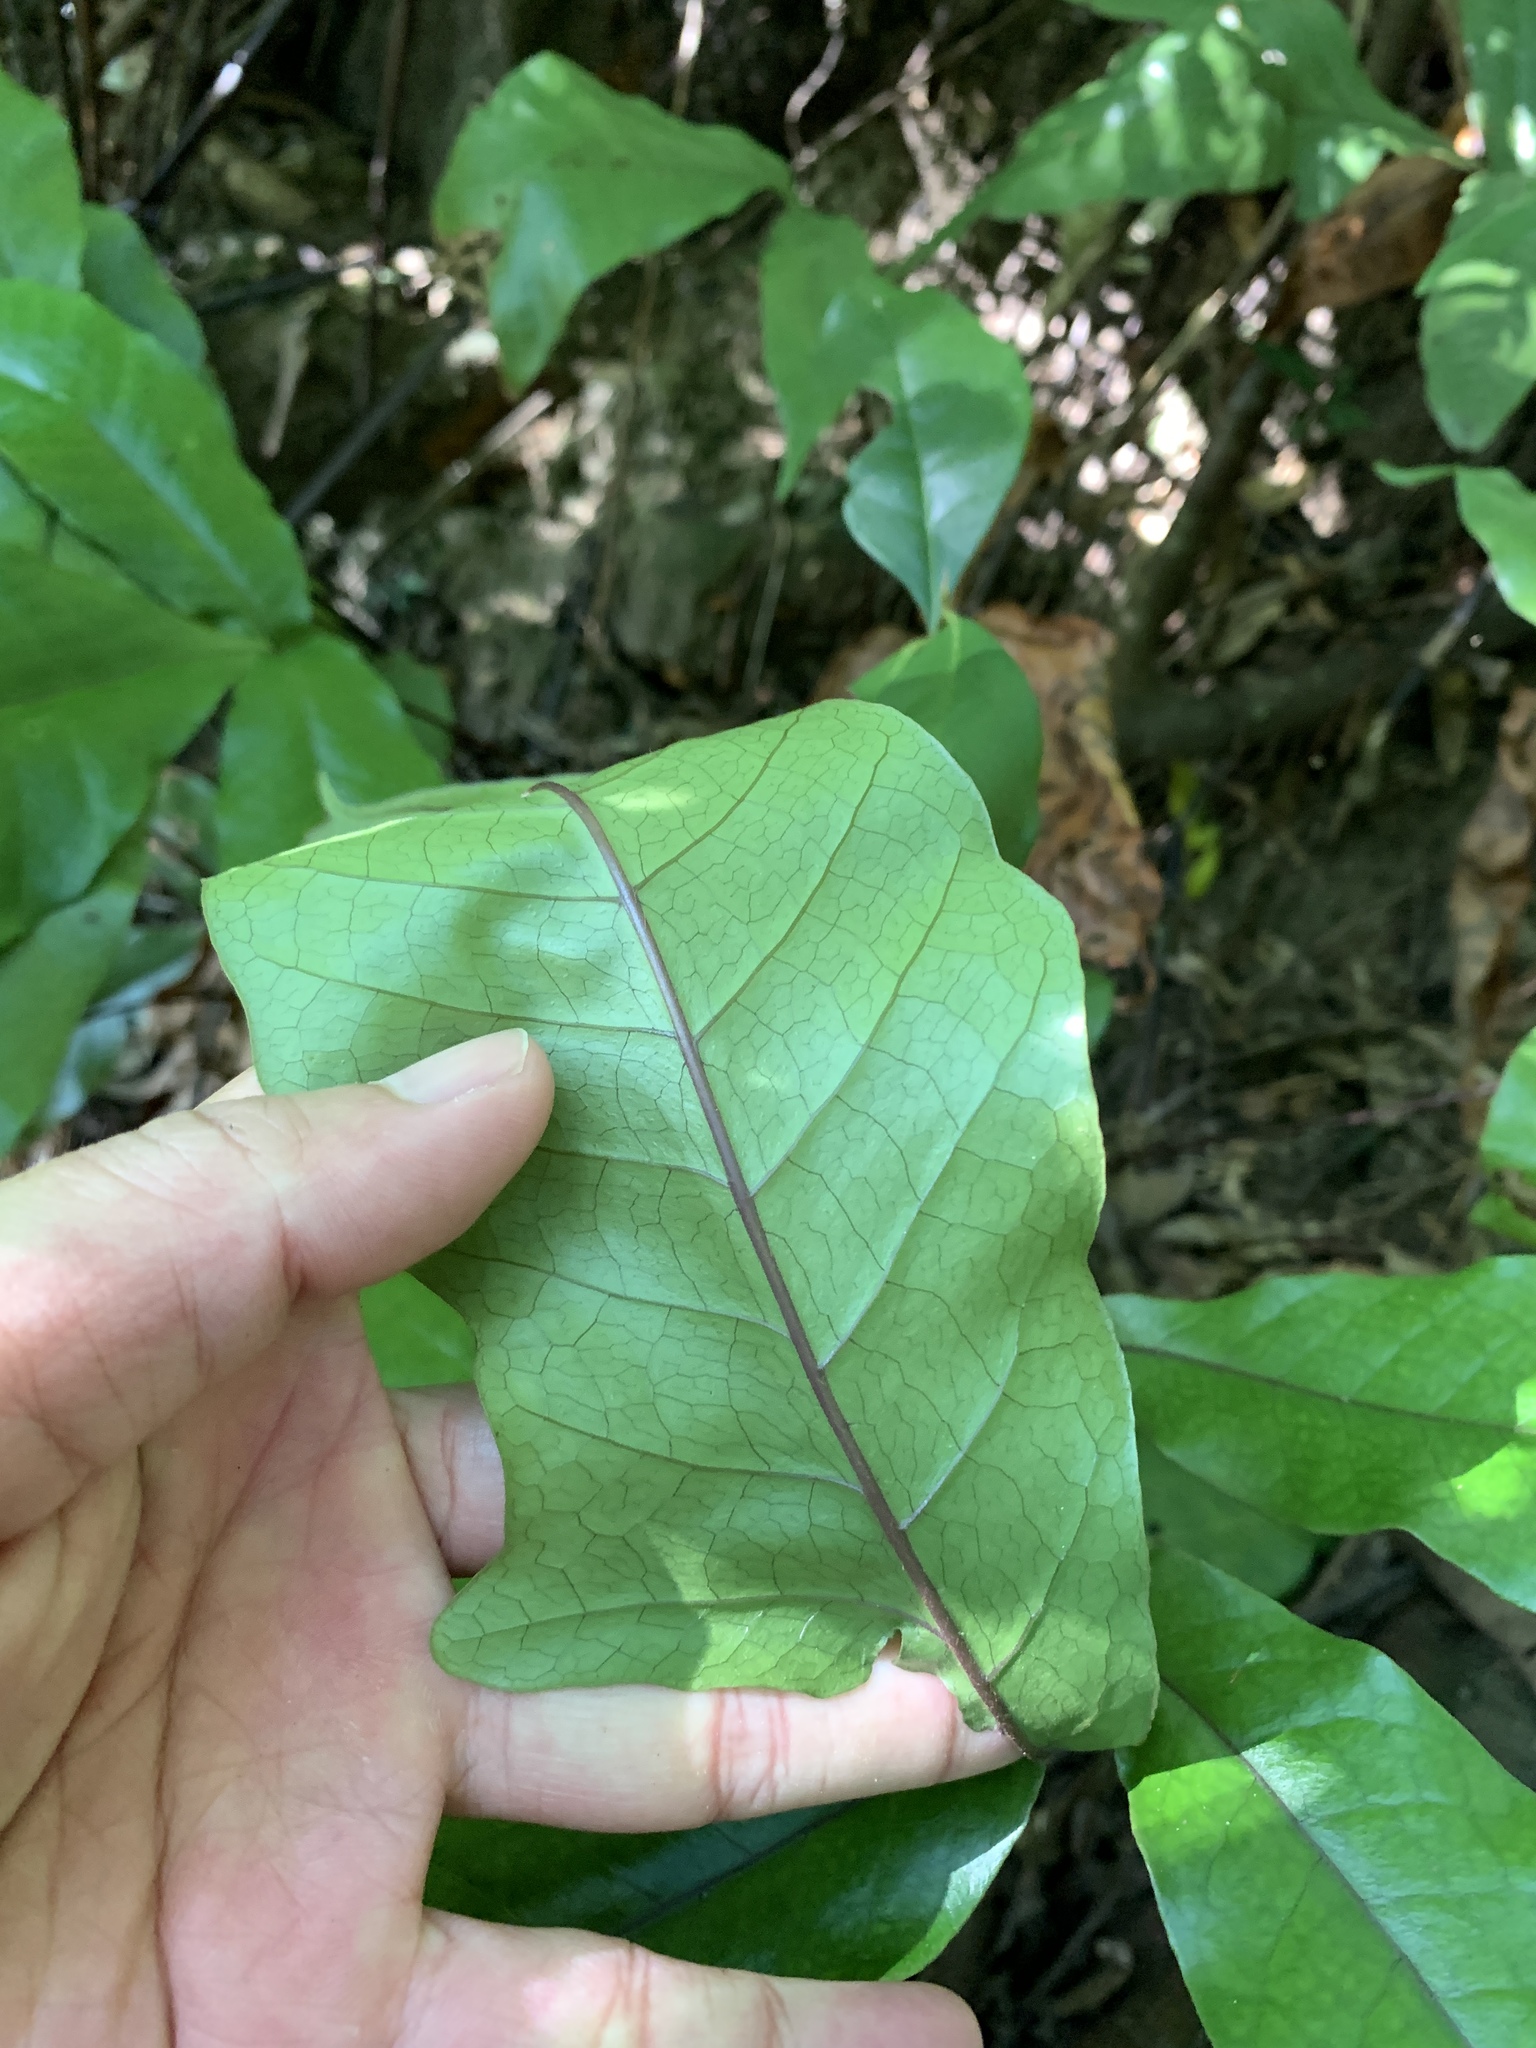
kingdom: Plantae
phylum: Tracheophyta
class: Polypodiopsida
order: Polypodiales
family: Tectariaceae
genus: Tectaria
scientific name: Tectaria harlandii
